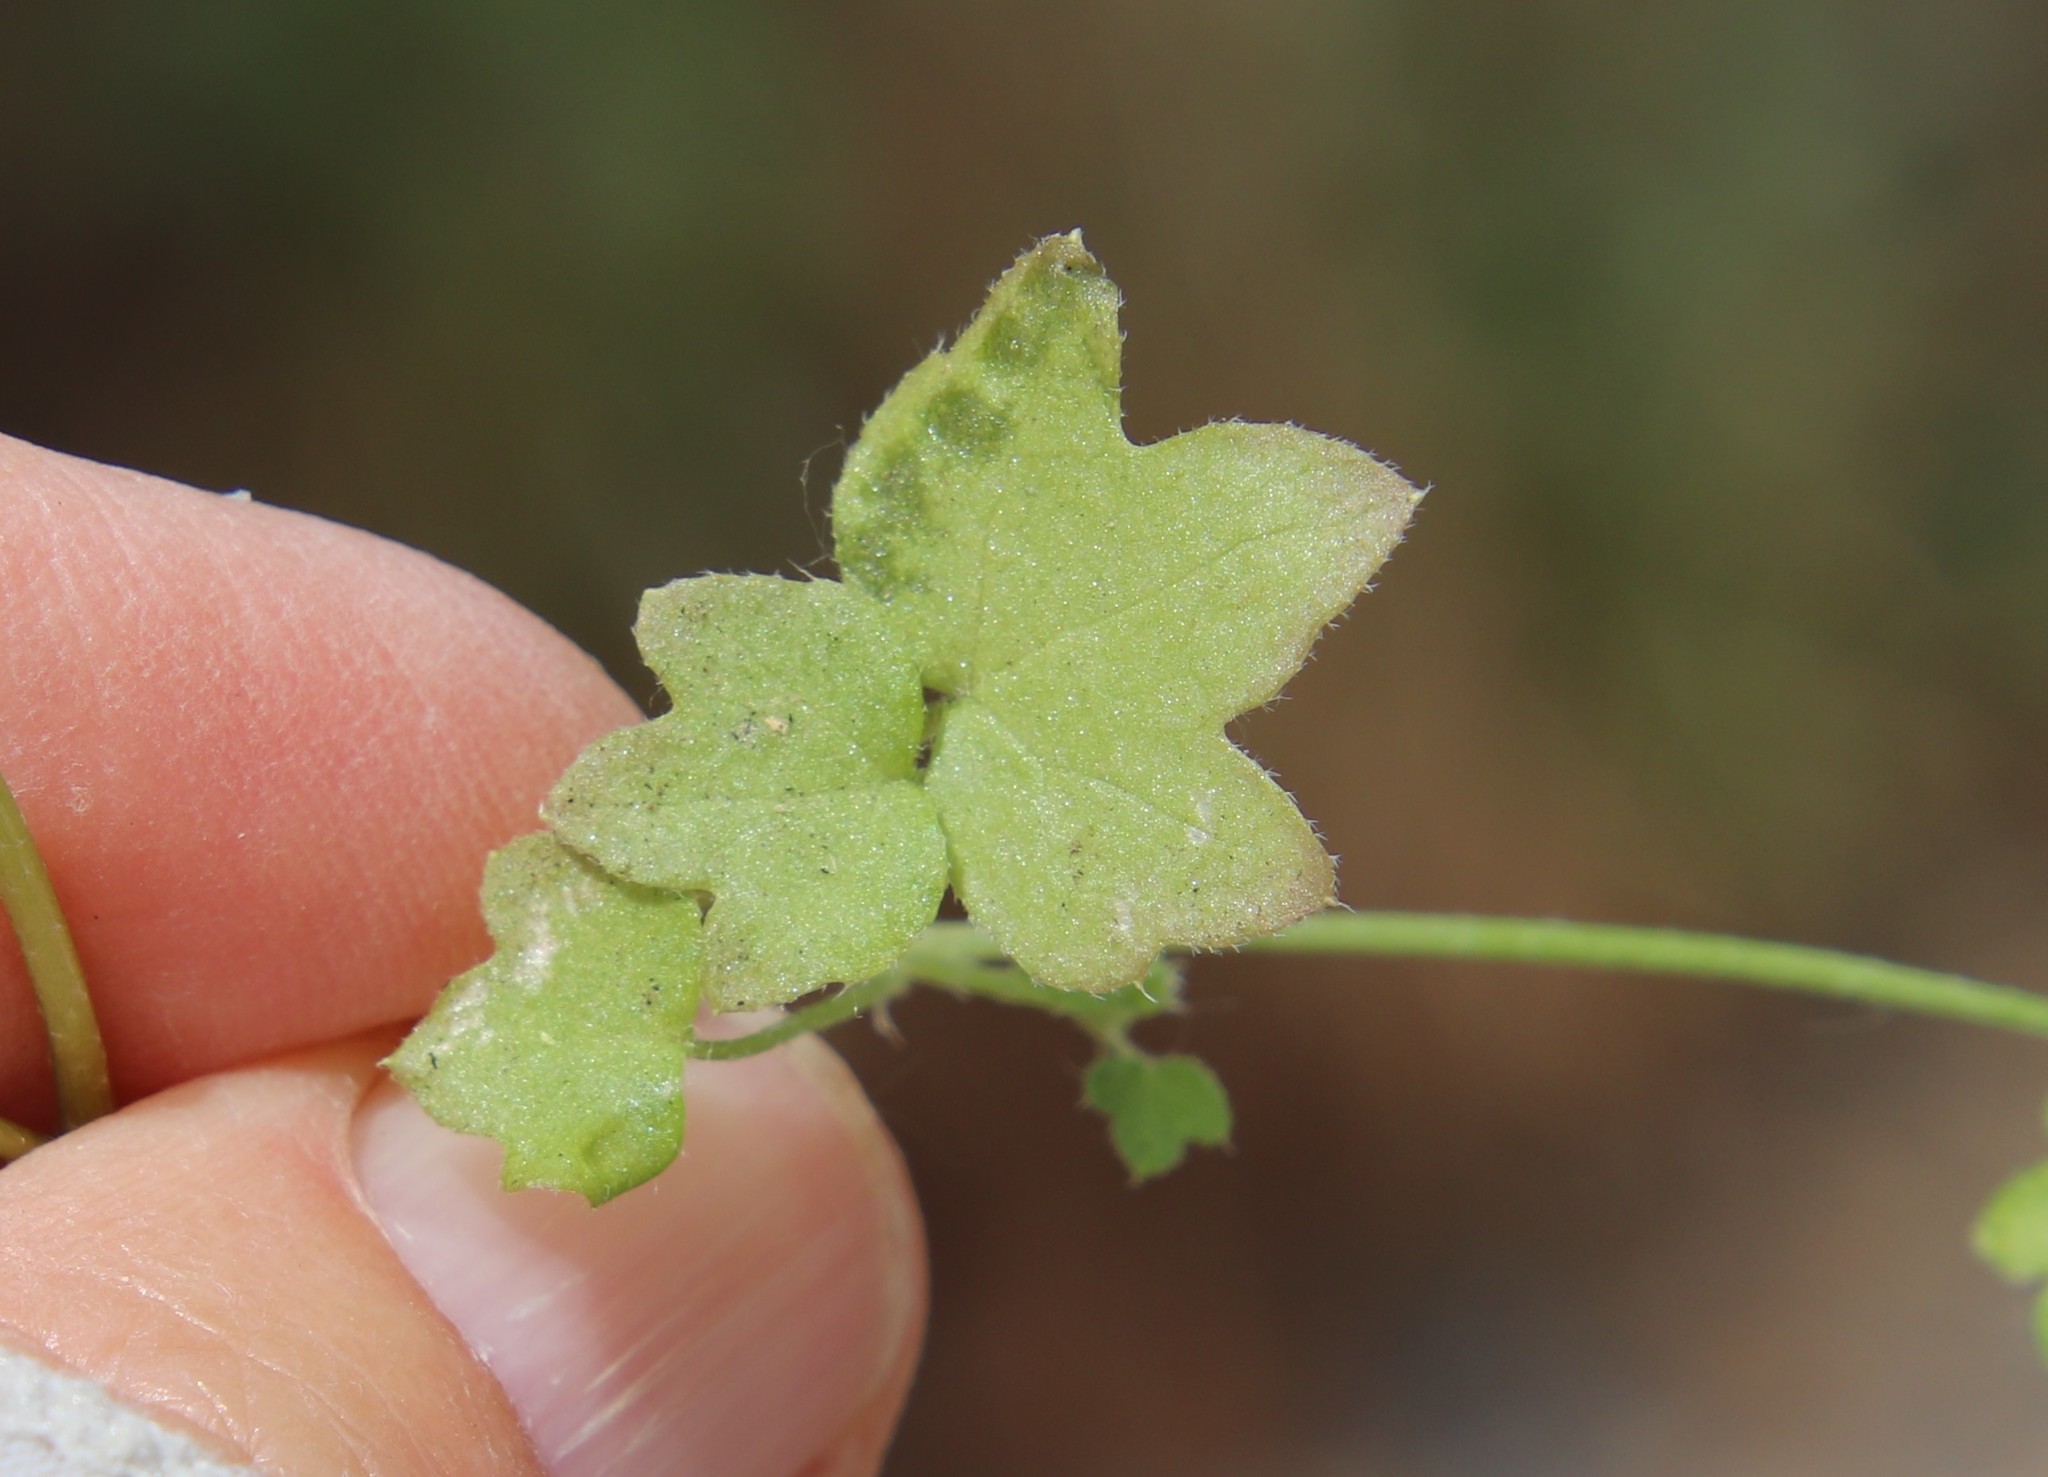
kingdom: Plantae
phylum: Tracheophyta
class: Magnoliopsida
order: Apiales
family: Apiaceae
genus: Bowlesia
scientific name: Bowlesia incana
